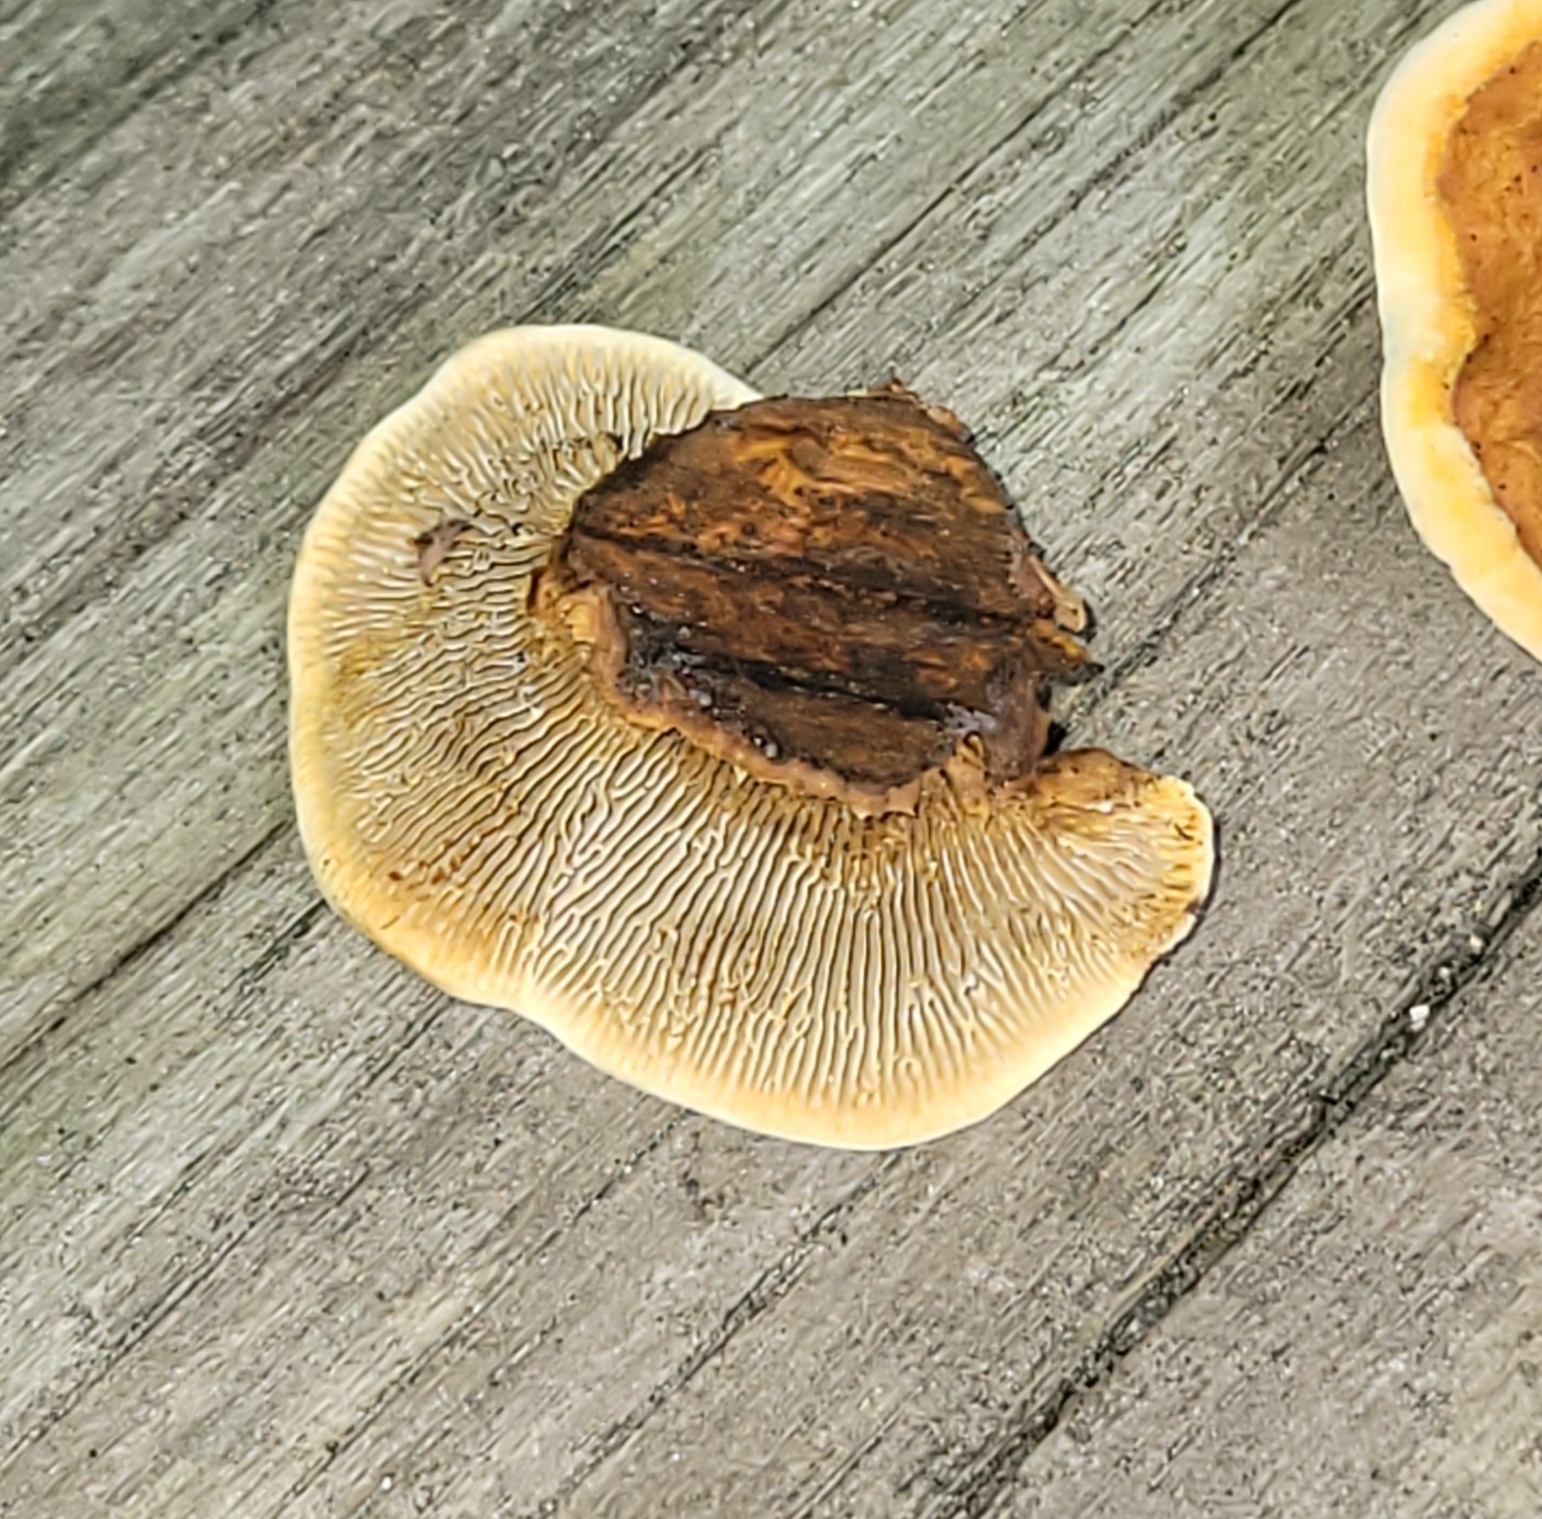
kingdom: Fungi
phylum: Basidiomycota
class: Agaricomycetes
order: Gloeophyllales
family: Gloeophyllaceae
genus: Gloeophyllum
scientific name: Gloeophyllum sepiarium
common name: Conifer mazegill
